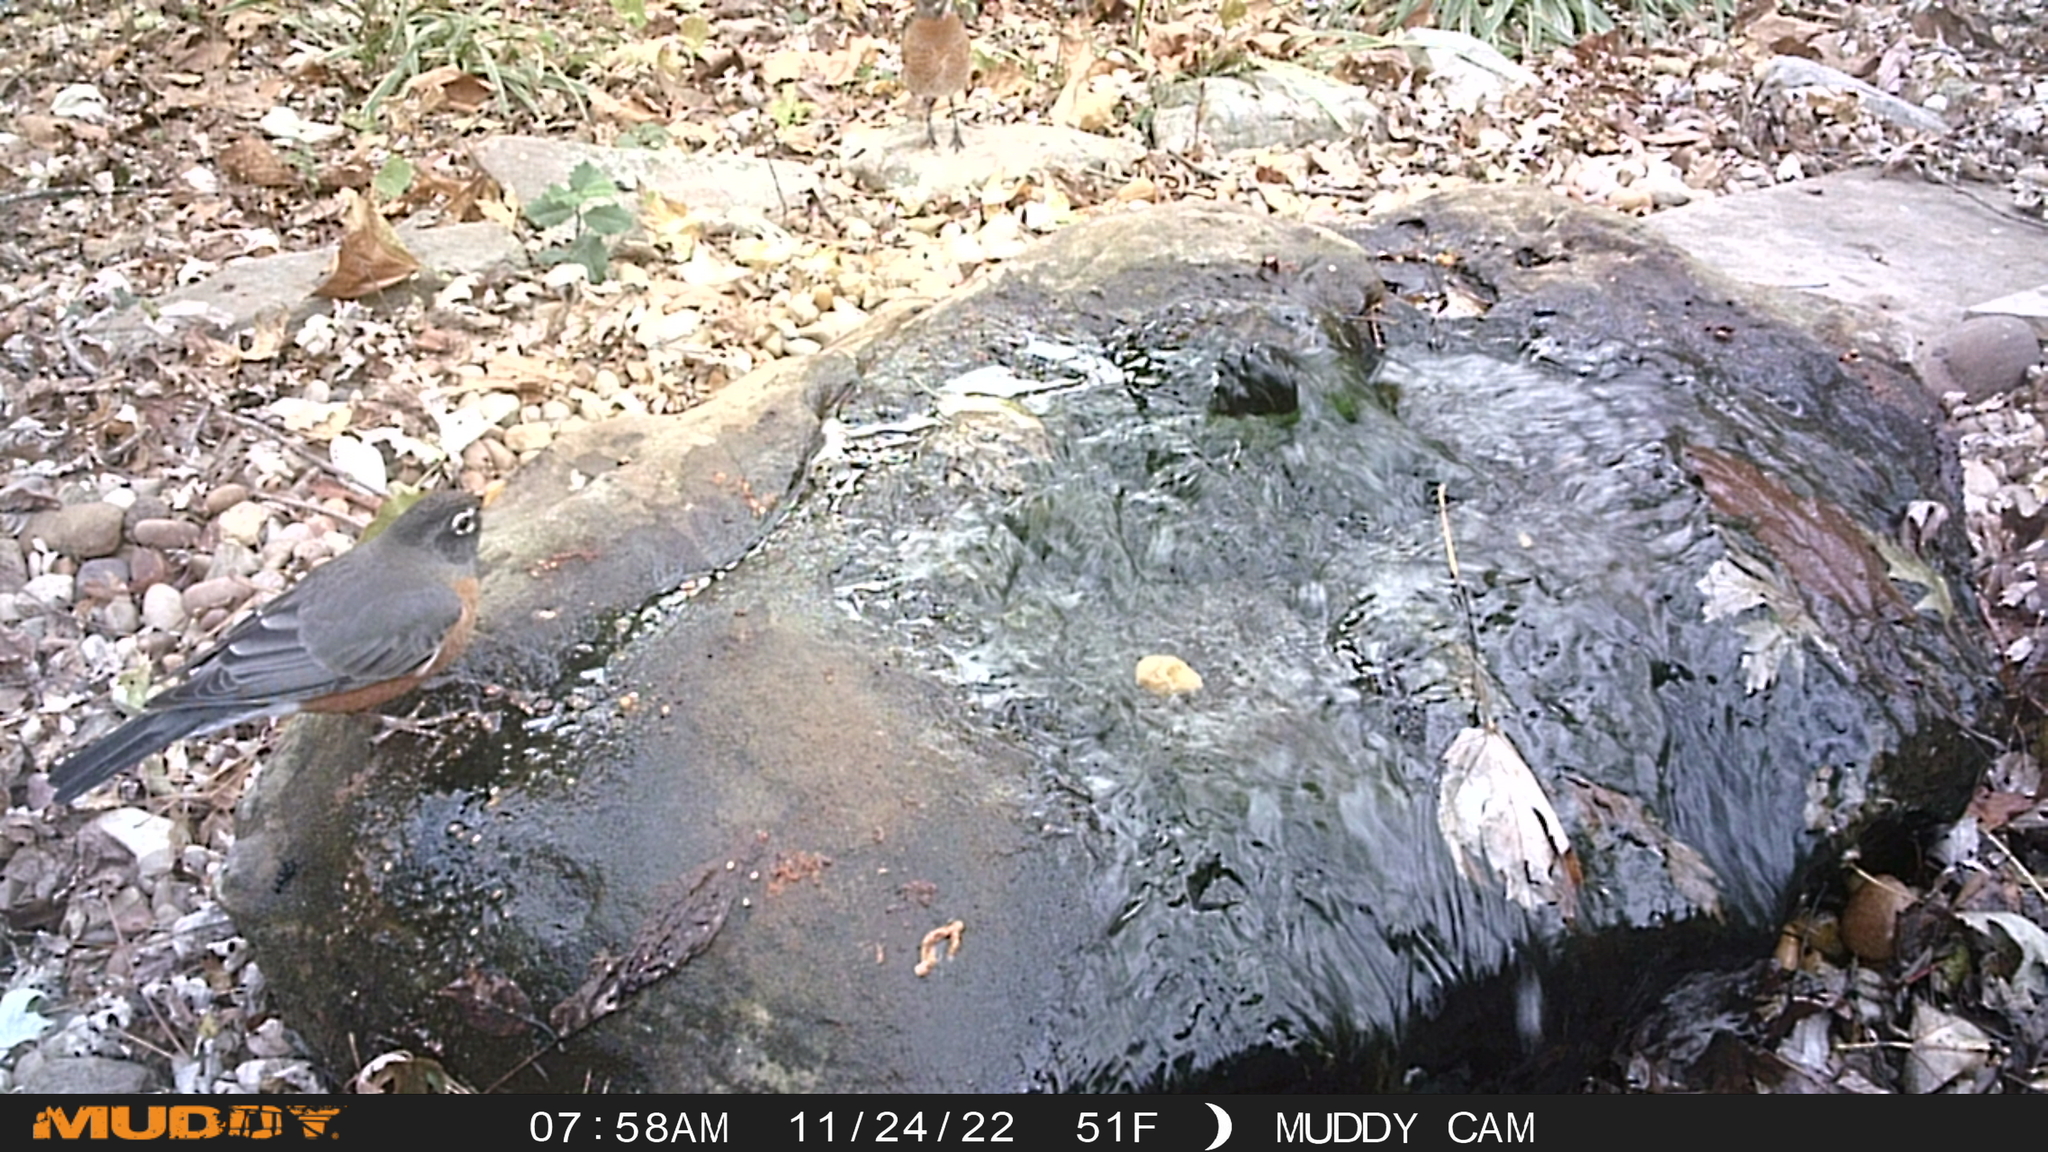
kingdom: Animalia
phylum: Chordata
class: Aves
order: Passeriformes
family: Turdidae
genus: Turdus
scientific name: Turdus migratorius
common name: American robin
